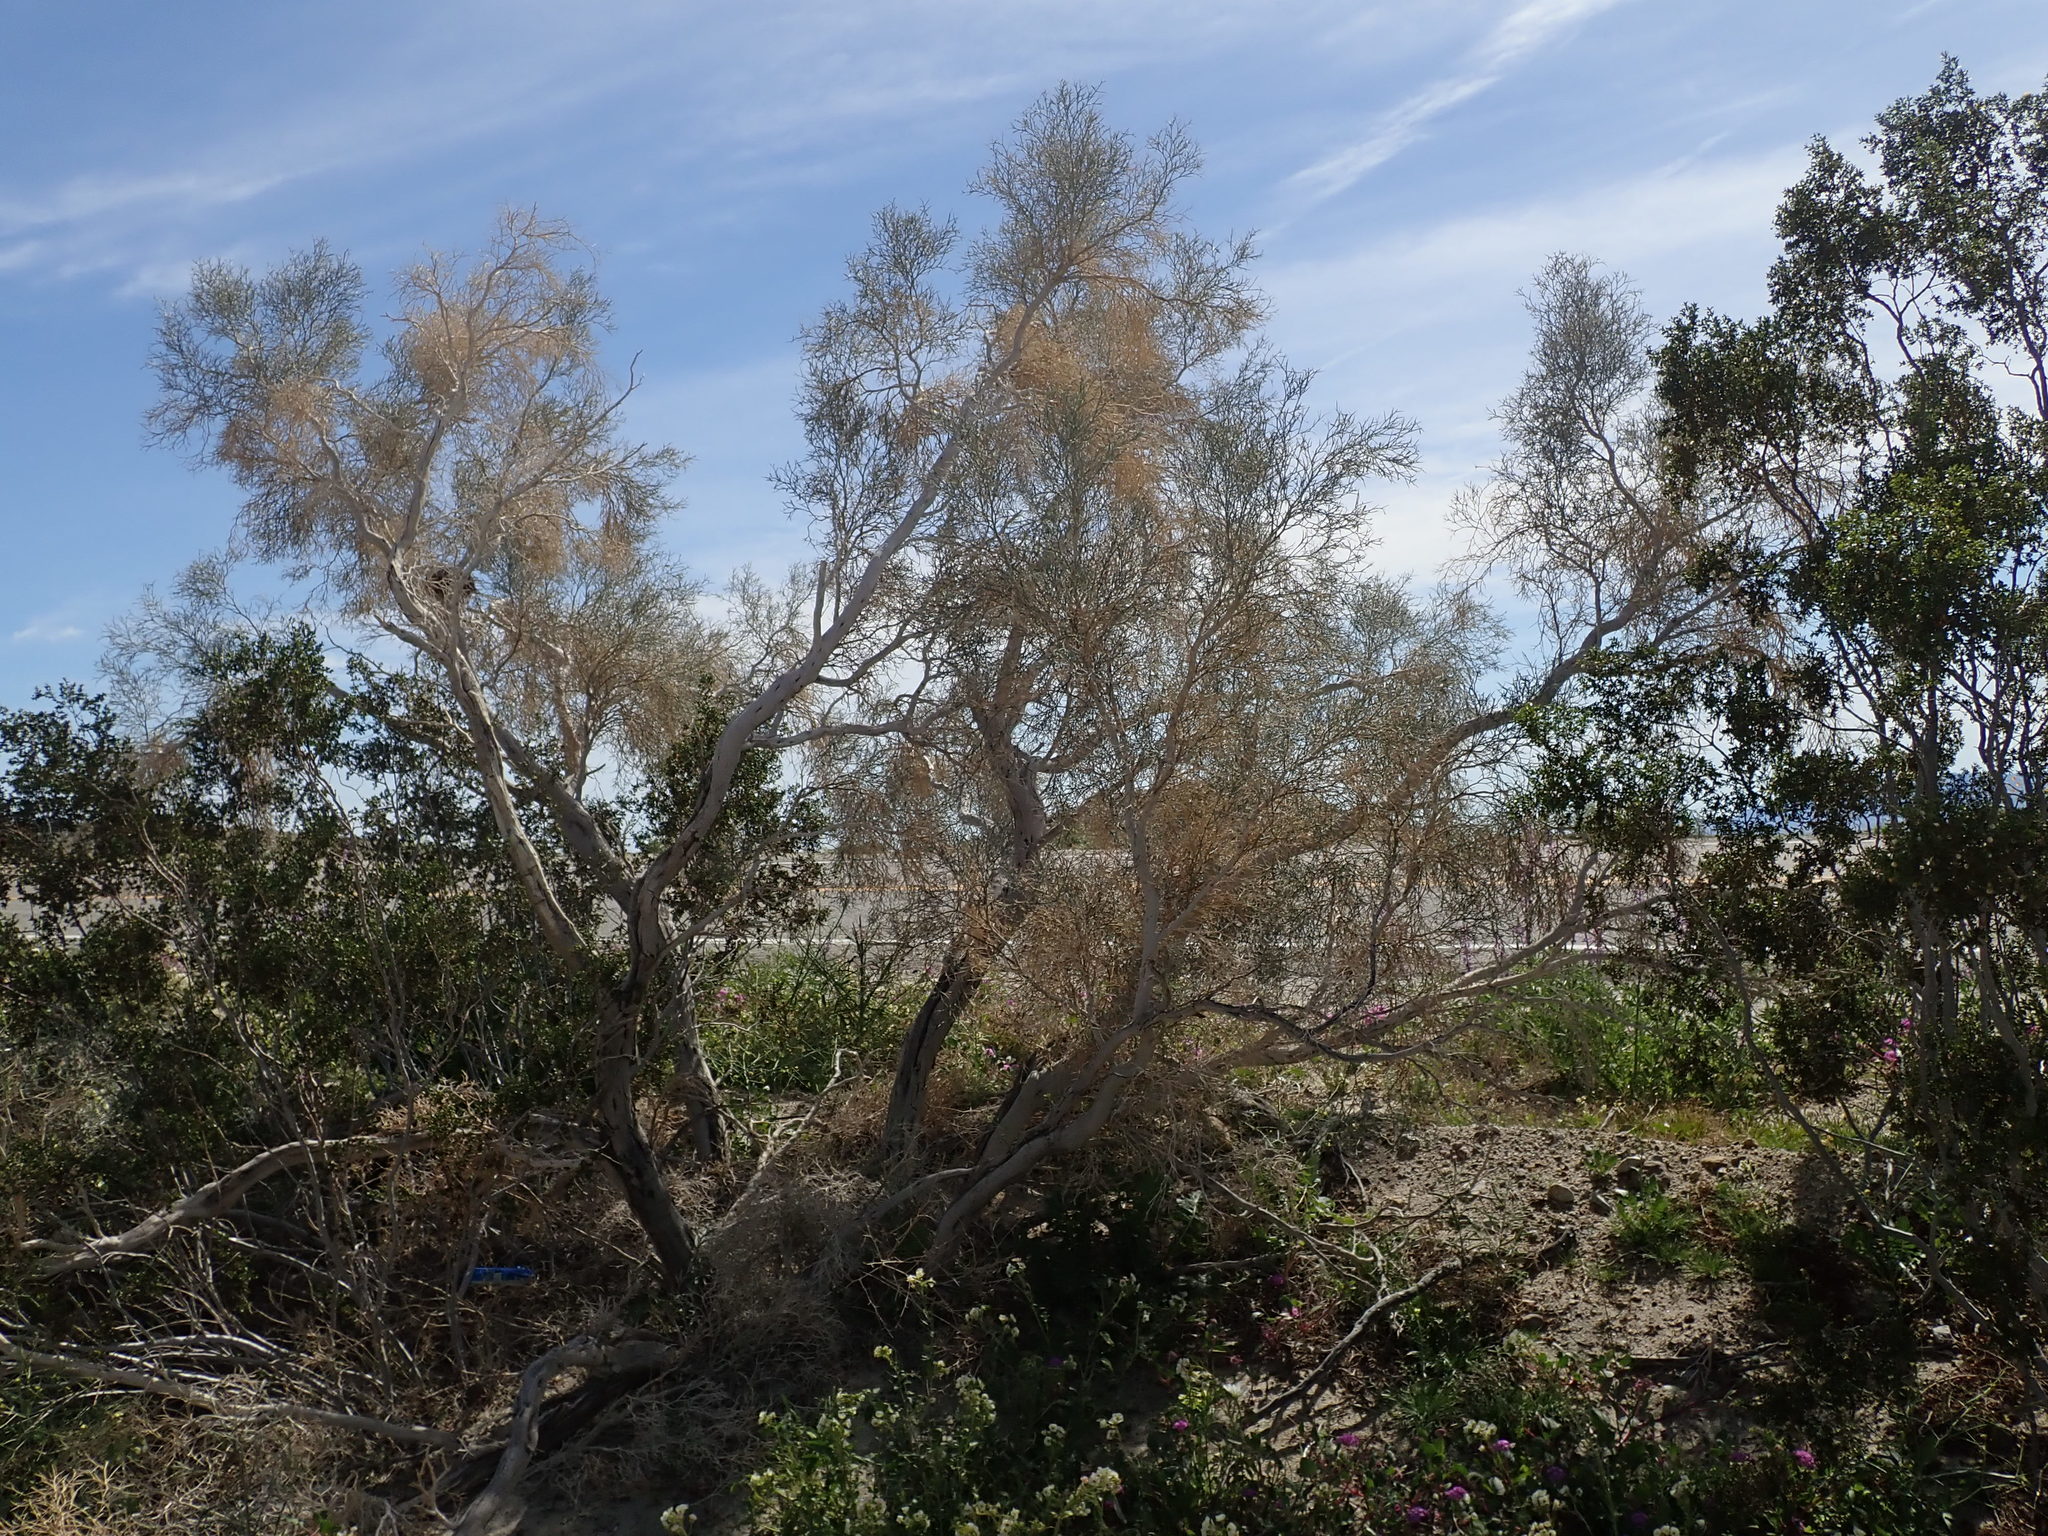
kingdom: Plantae
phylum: Tracheophyta
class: Magnoliopsida
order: Fabales
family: Fabaceae
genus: Psorothamnus
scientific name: Psorothamnus spinosus
